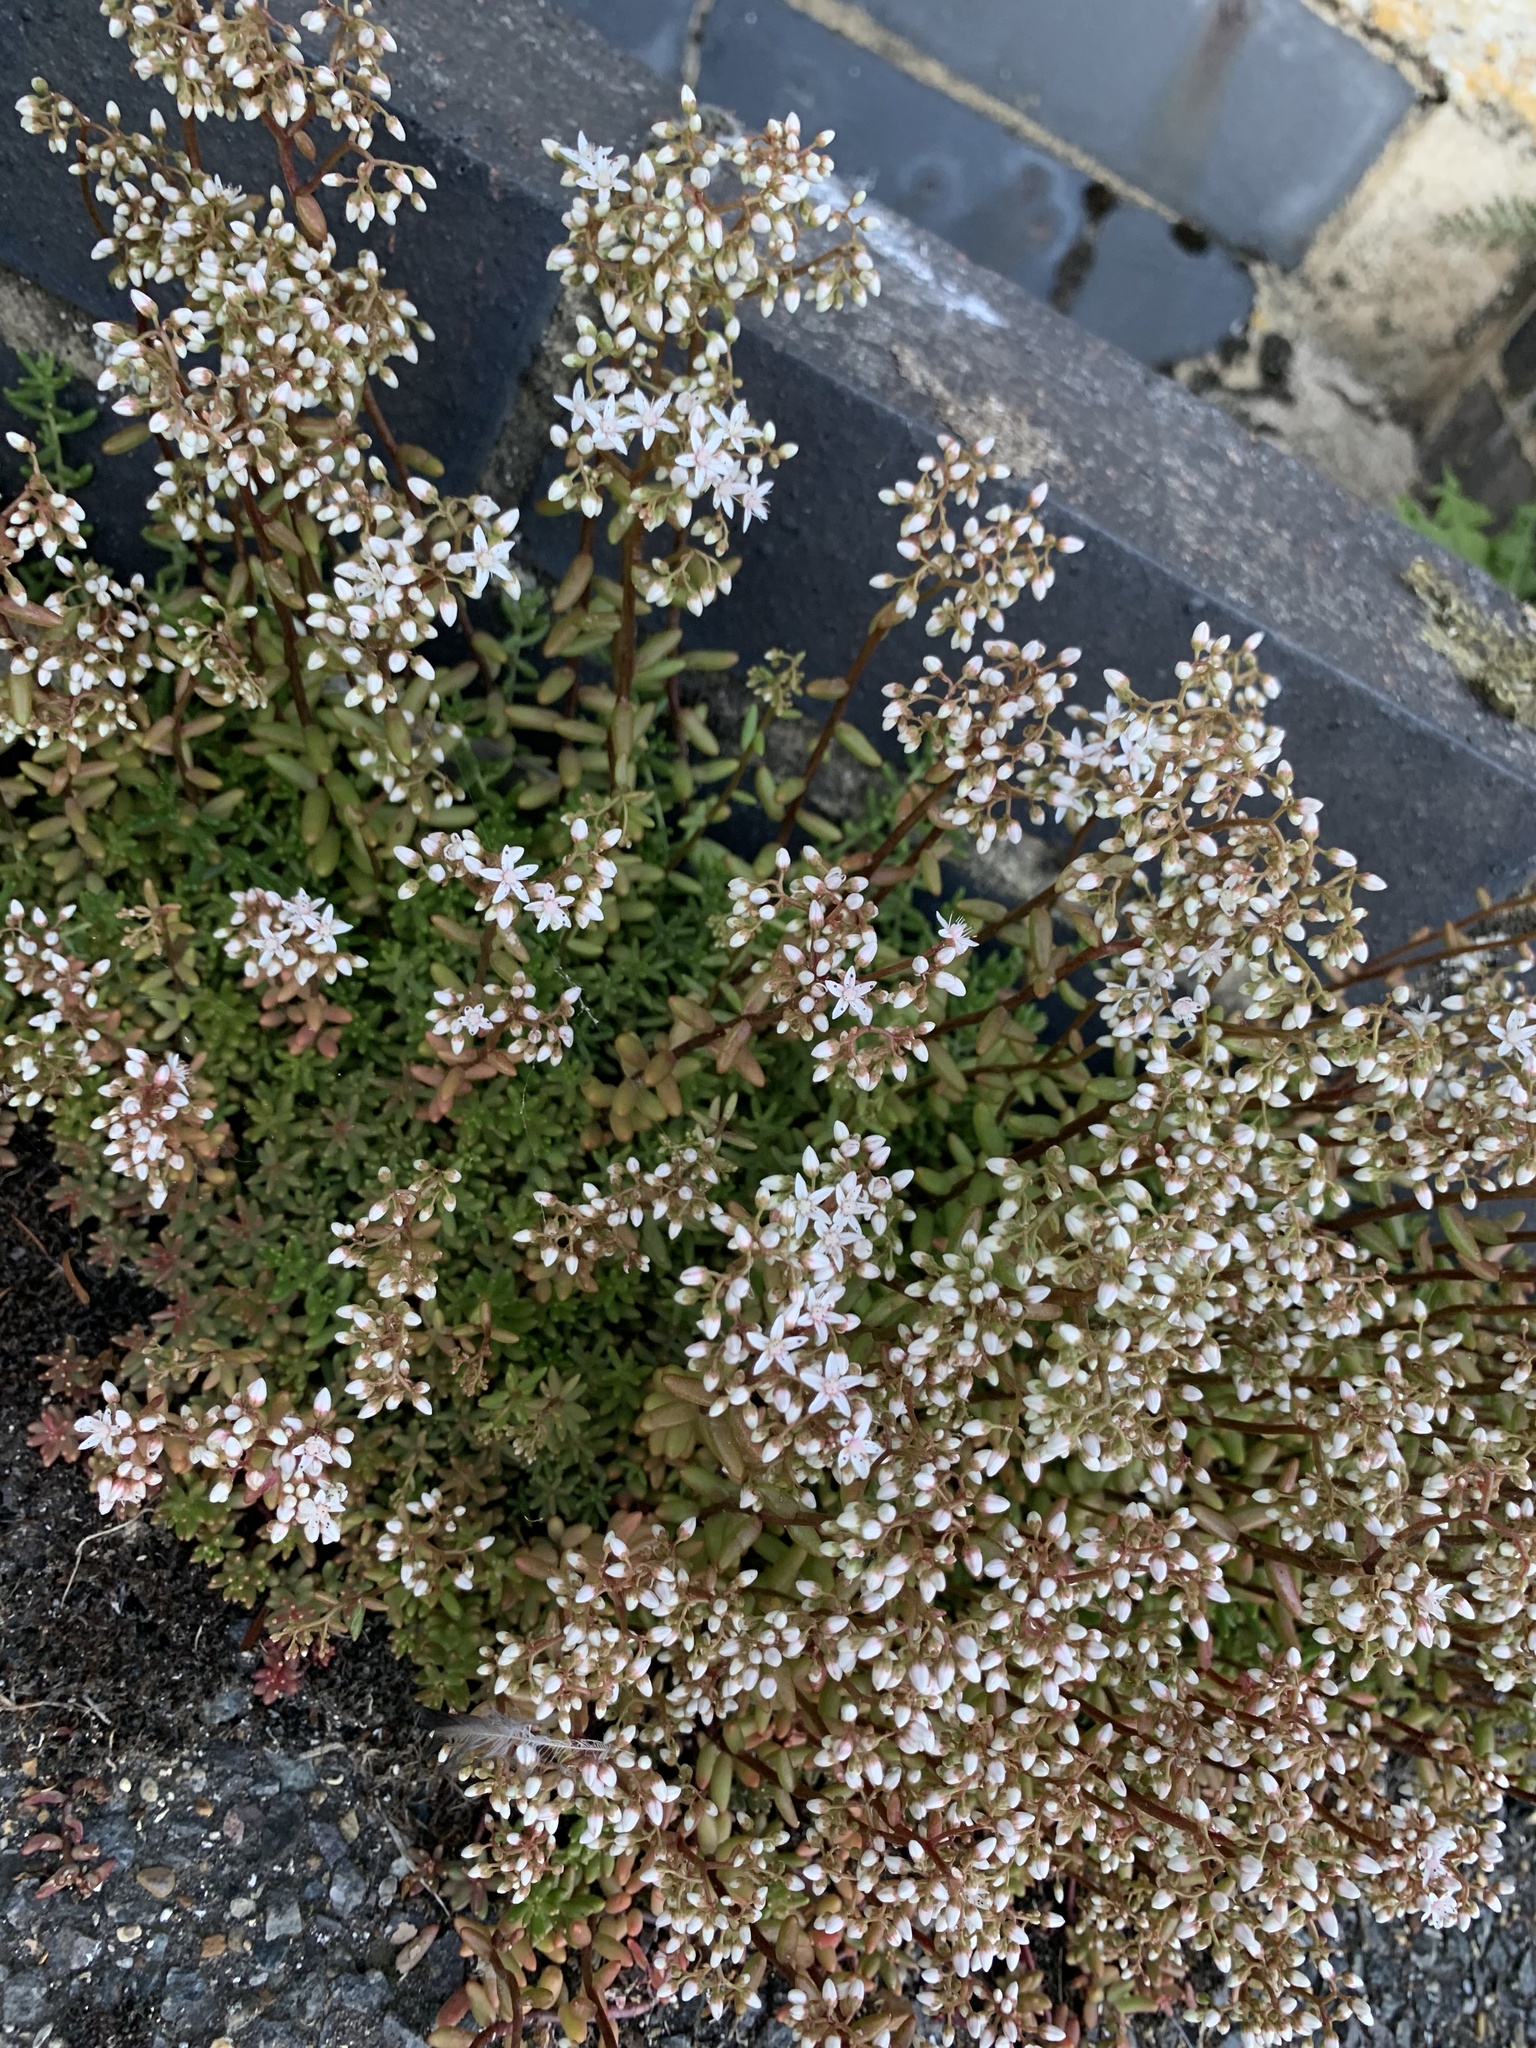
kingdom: Plantae
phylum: Tracheophyta
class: Magnoliopsida
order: Saxifragales
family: Crassulaceae
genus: Sedum
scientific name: Sedum album
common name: White stonecrop
